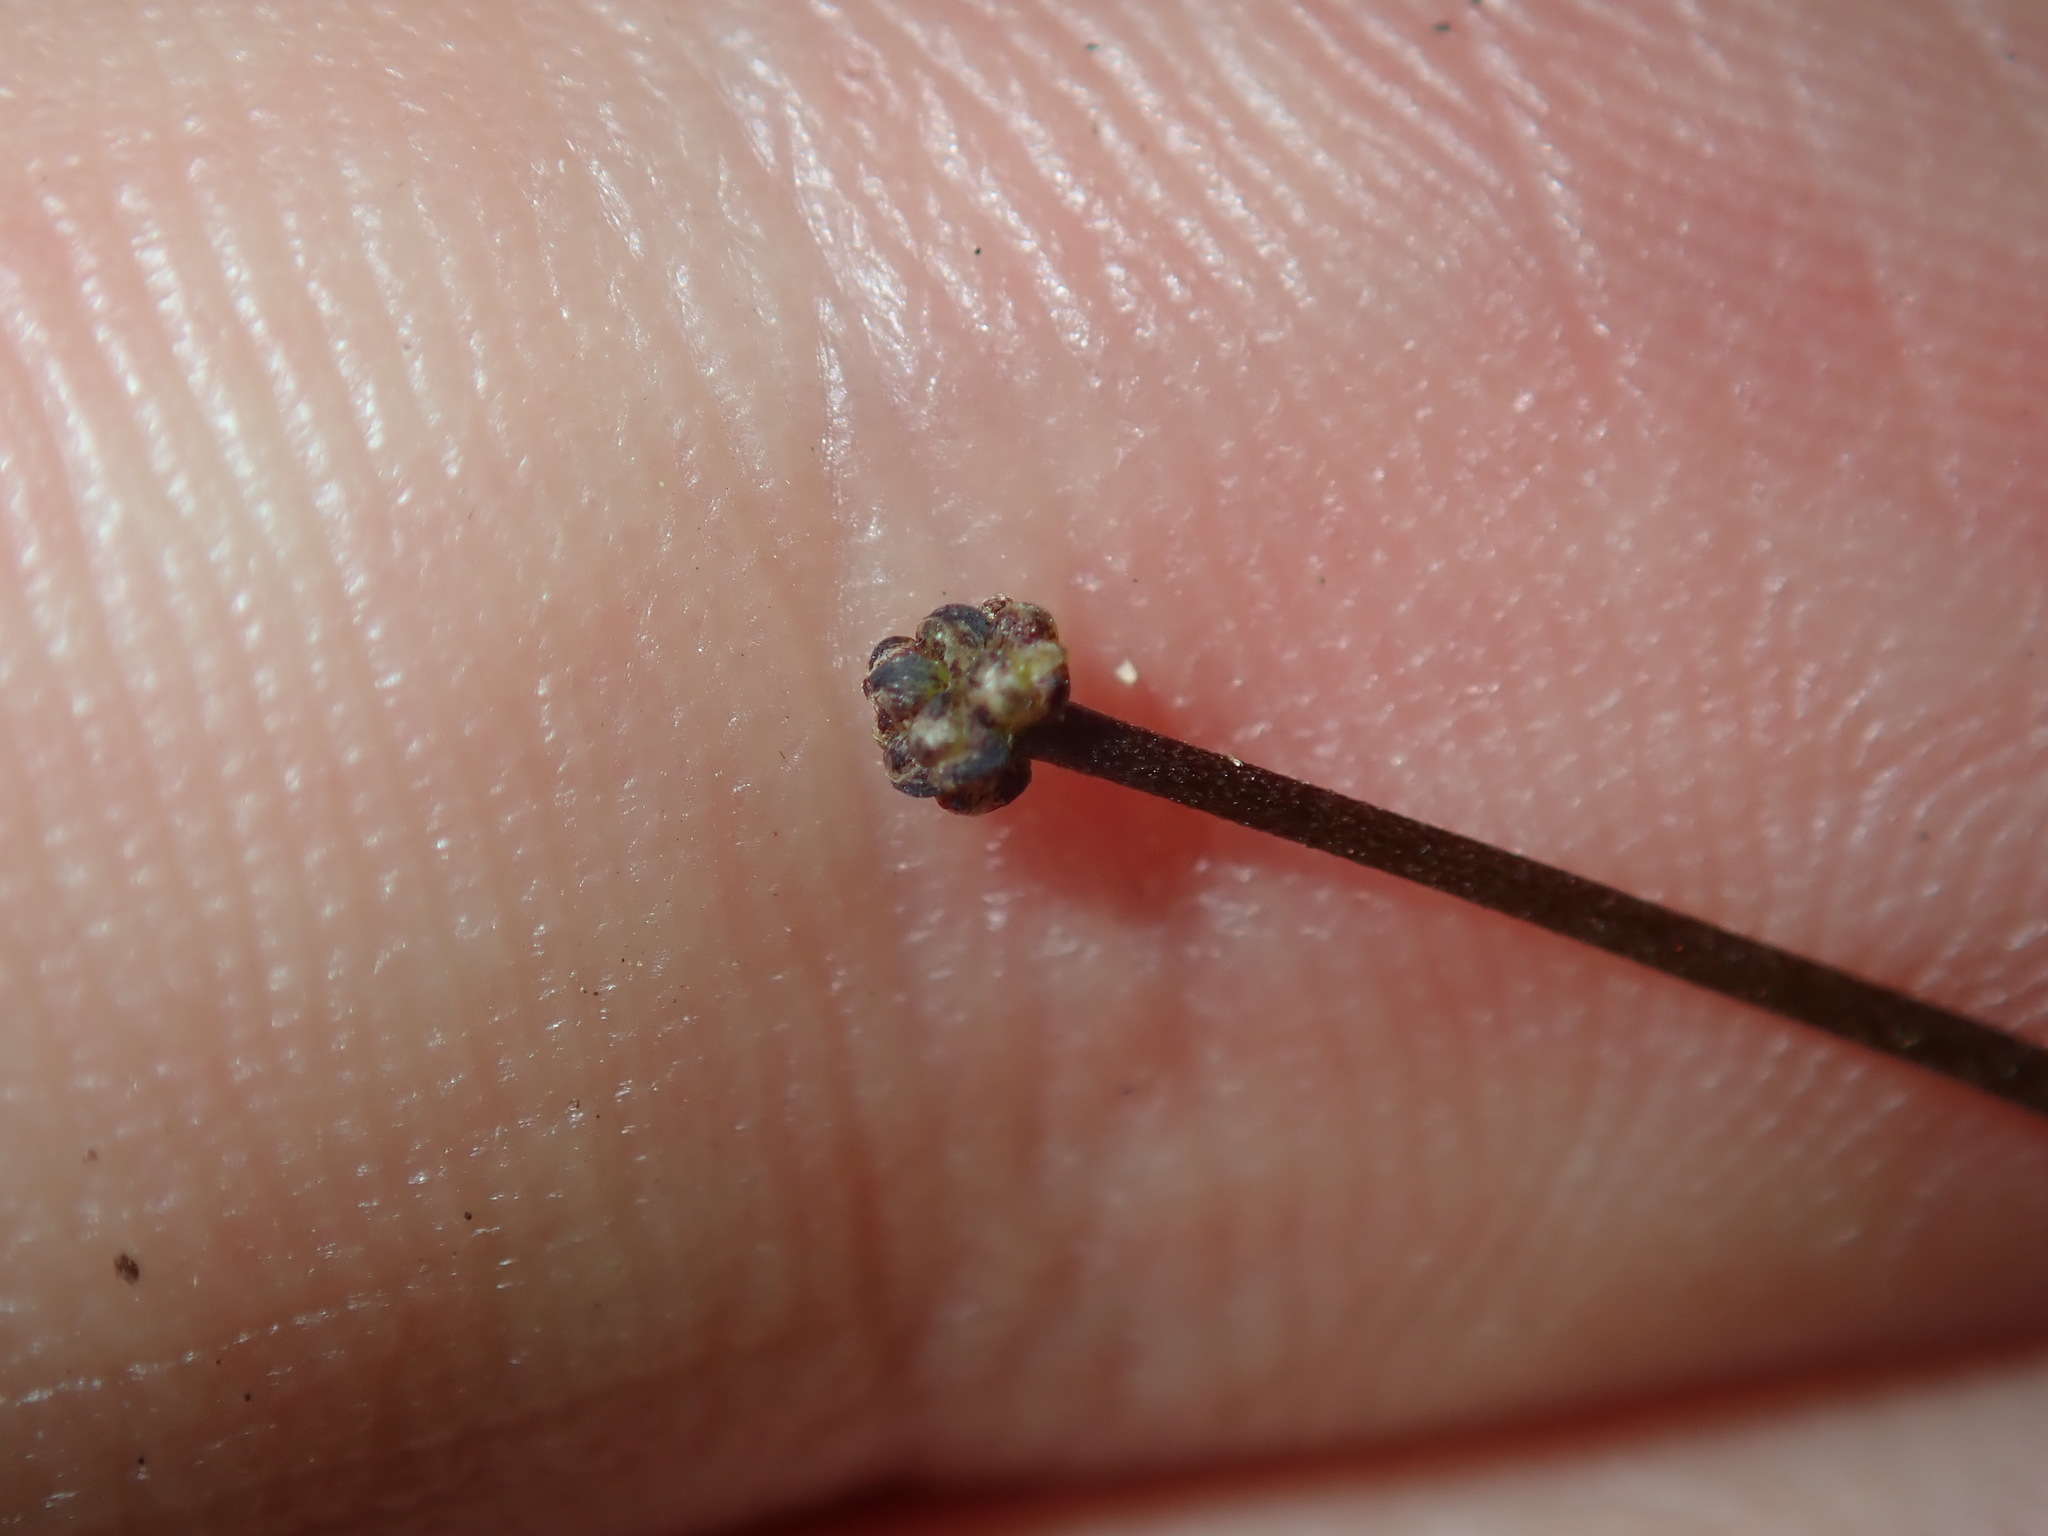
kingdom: Plantae
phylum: Tracheophyta
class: Liliopsida
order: Asparagales
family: Asparagaceae
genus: Lomandra
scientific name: Lomandra multiflora
